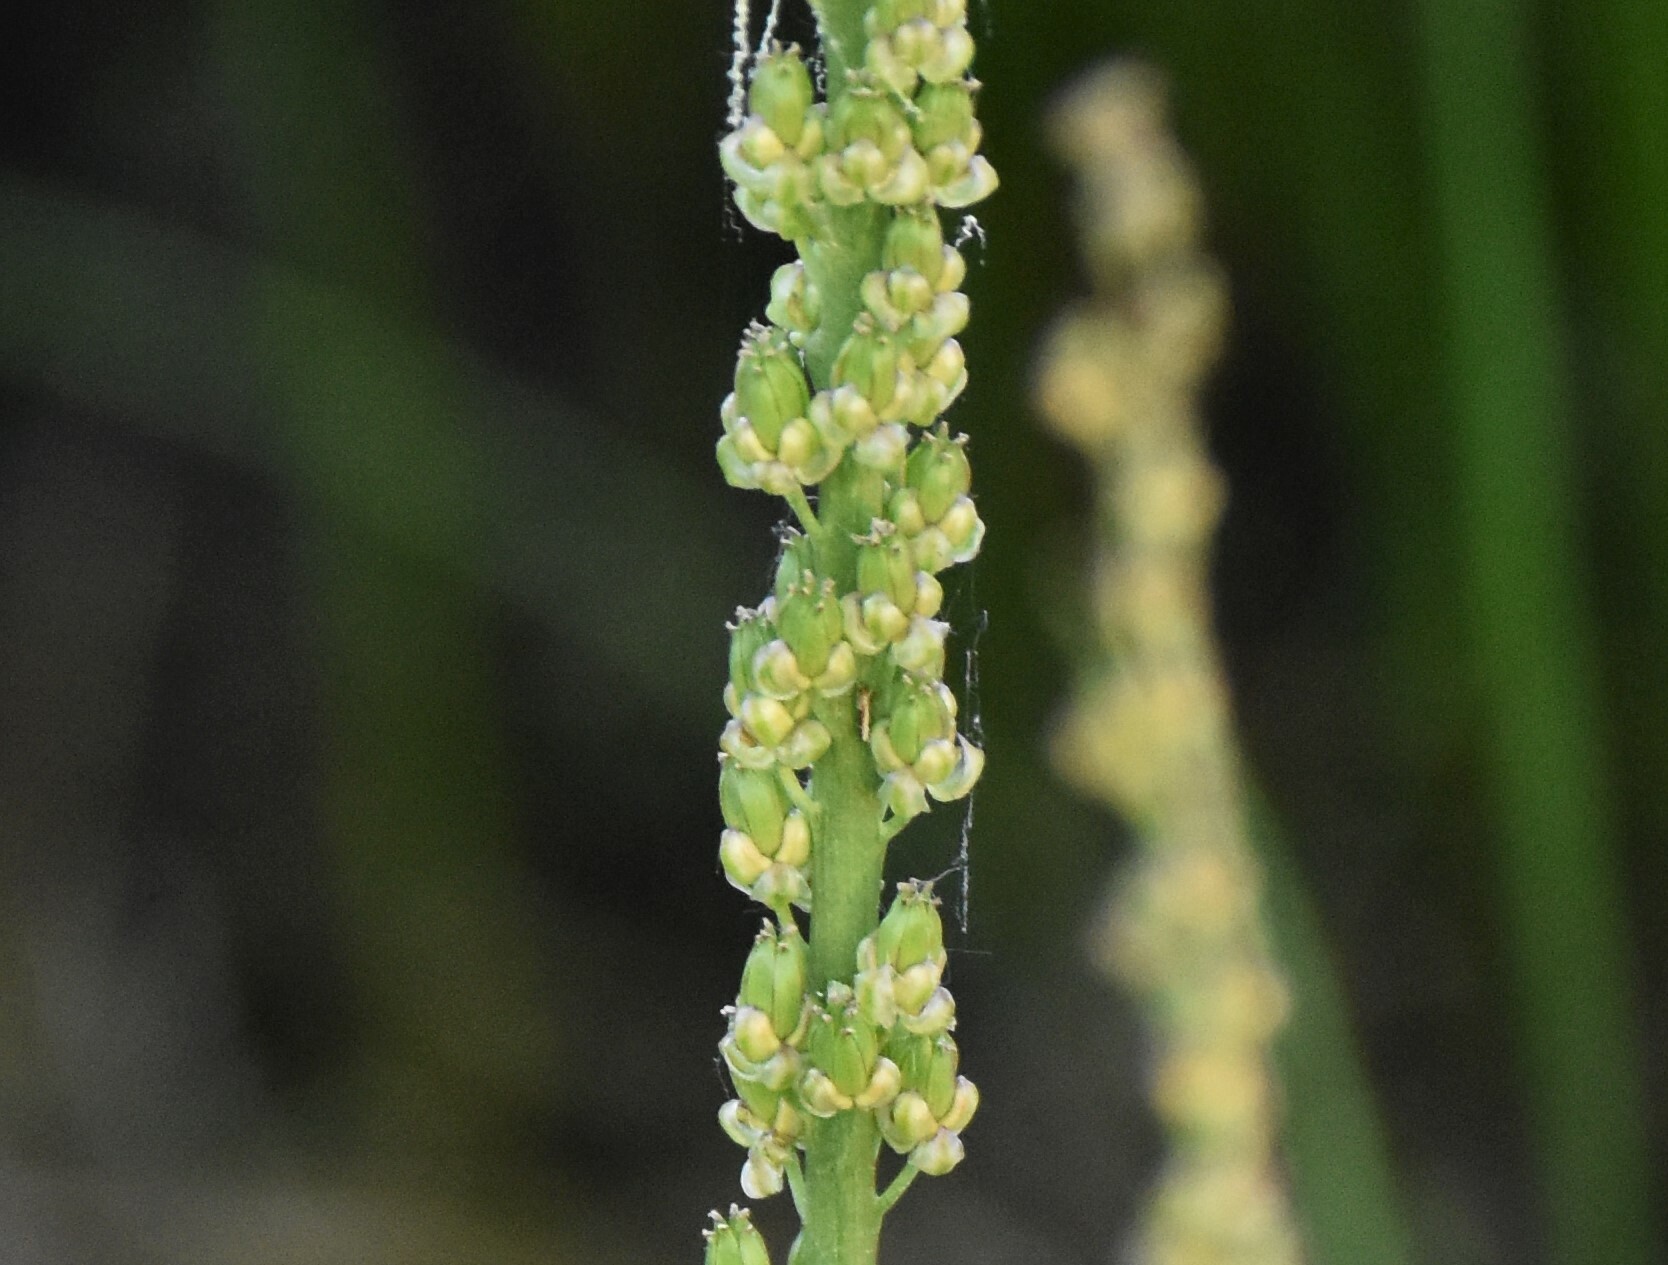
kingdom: Plantae
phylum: Tracheophyta
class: Liliopsida
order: Alismatales
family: Juncaginaceae
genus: Triglochin
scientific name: Triglochin maritima
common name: Sea arrowgrass
